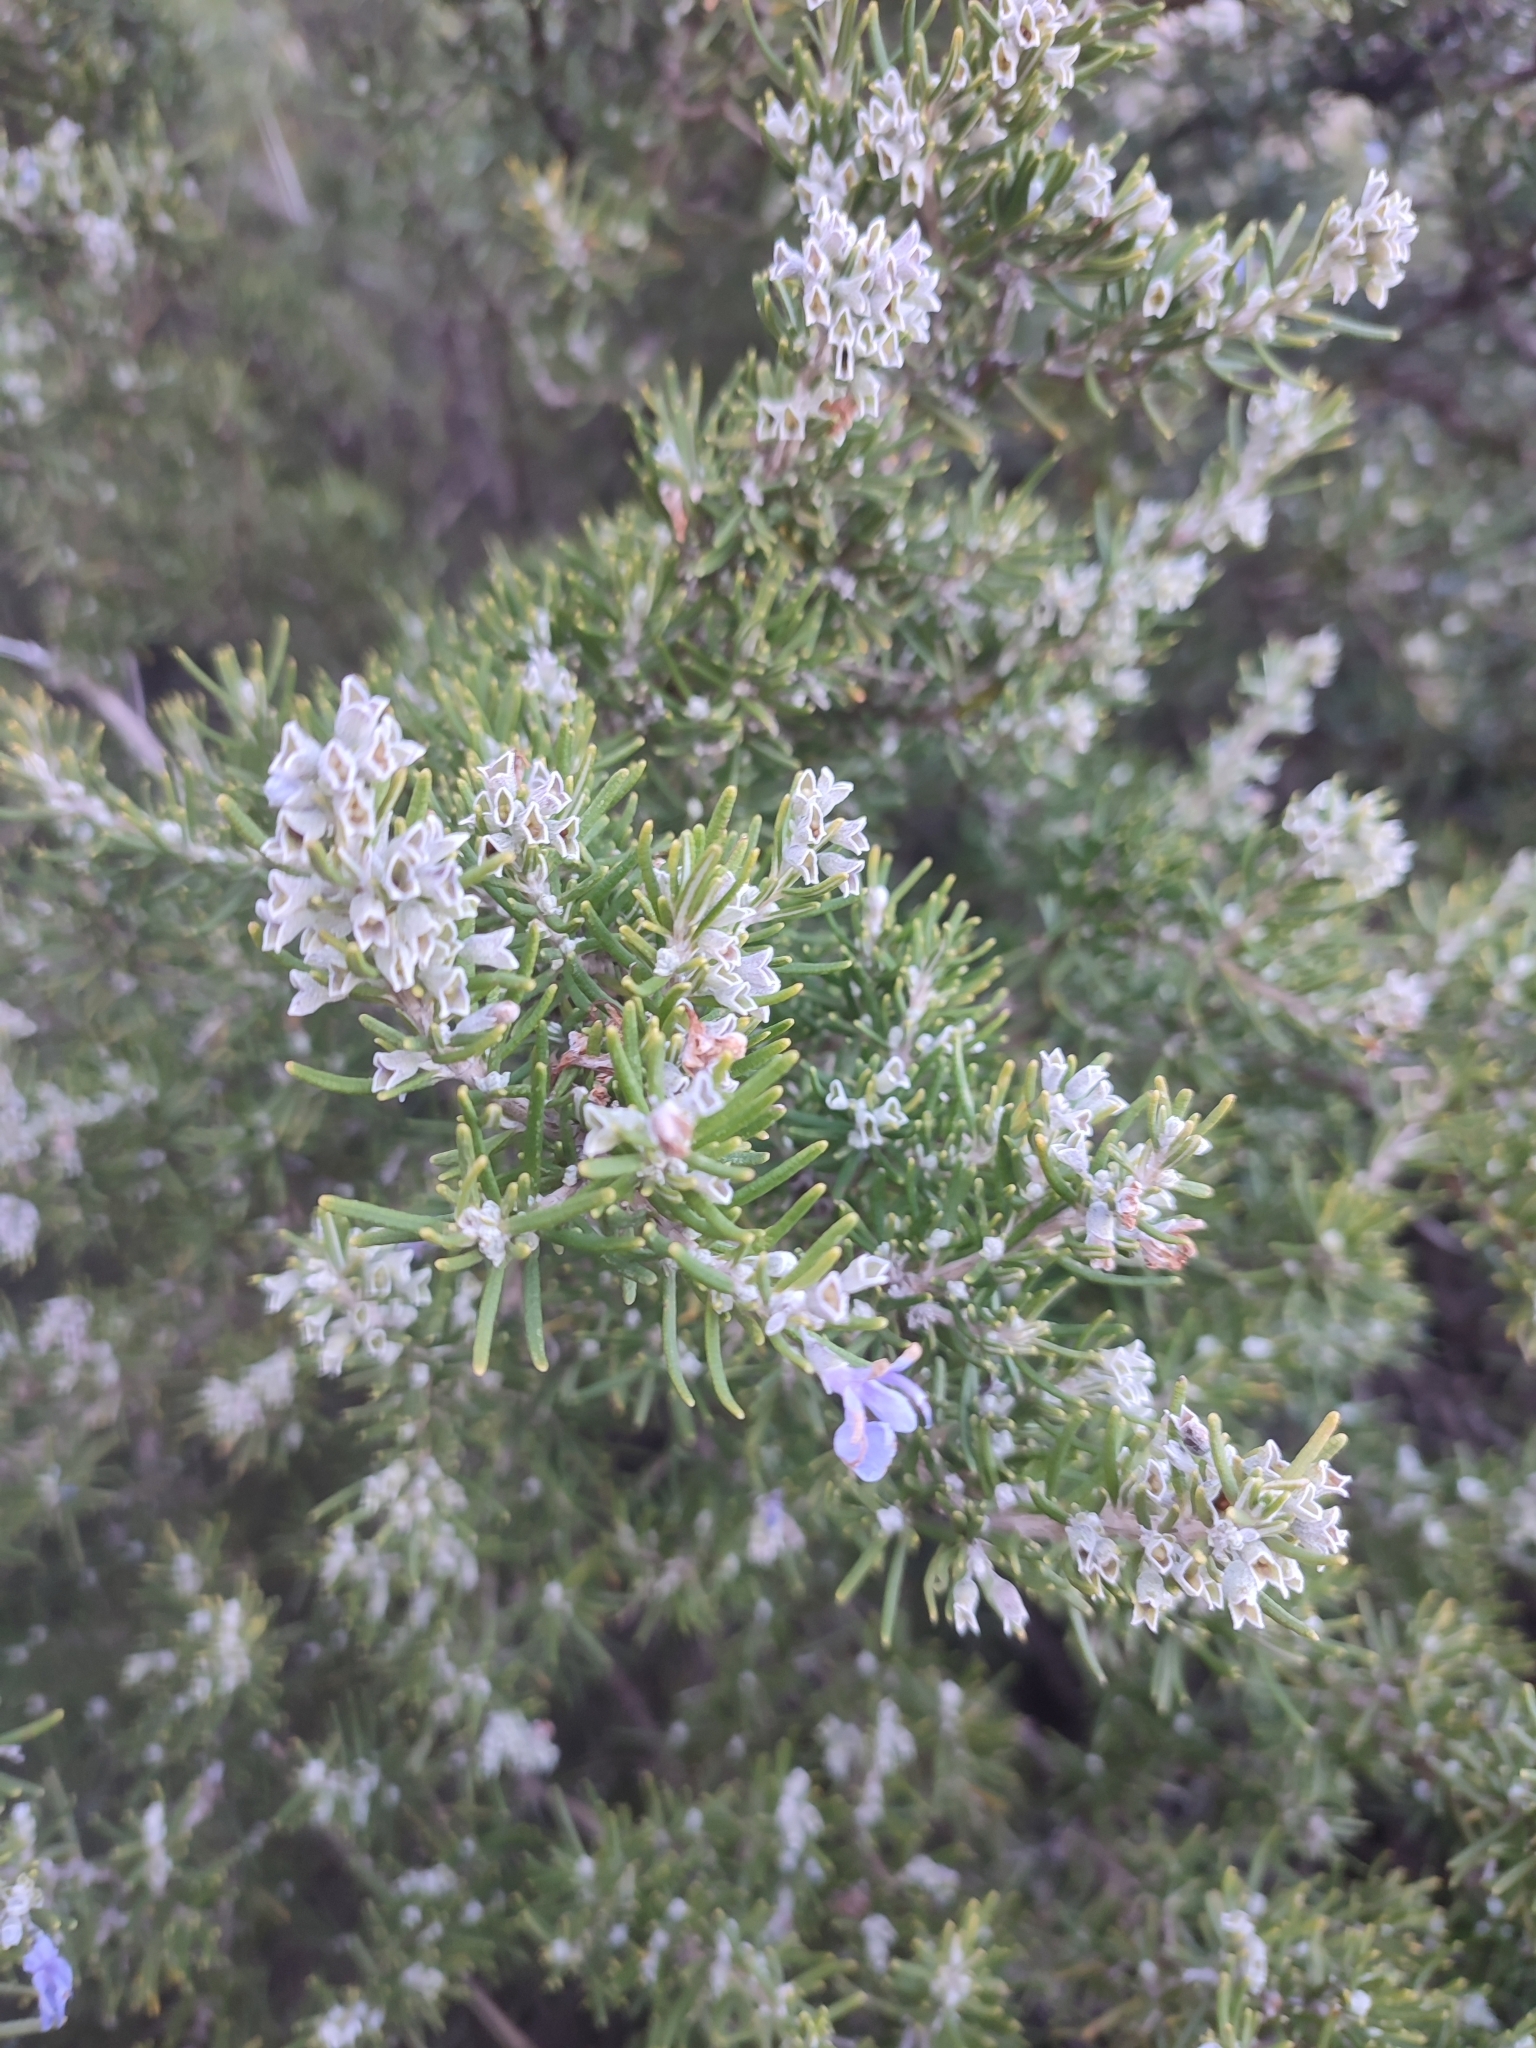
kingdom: Plantae
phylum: Tracheophyta
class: Magnoliopsida
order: Lamiales
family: Lamiaceae
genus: Salvia
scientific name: Salvia rosmarinus
